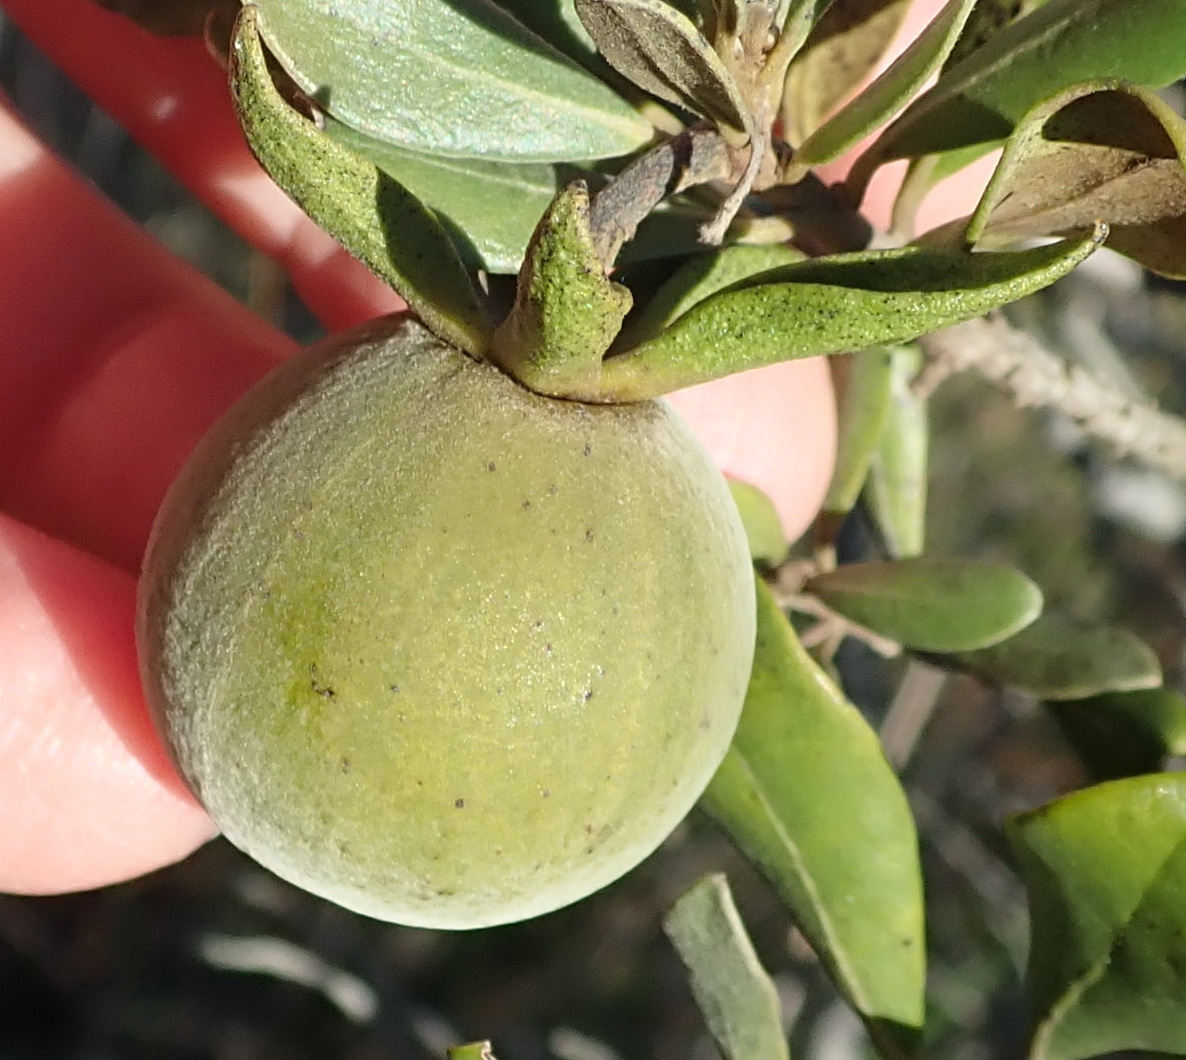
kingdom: Plantae
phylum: Tracheophyta
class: Magnoliopsida
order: Ericales
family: Ebenaceae
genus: Diospyros
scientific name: Diospyros dichrophylla
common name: Common star-apple
